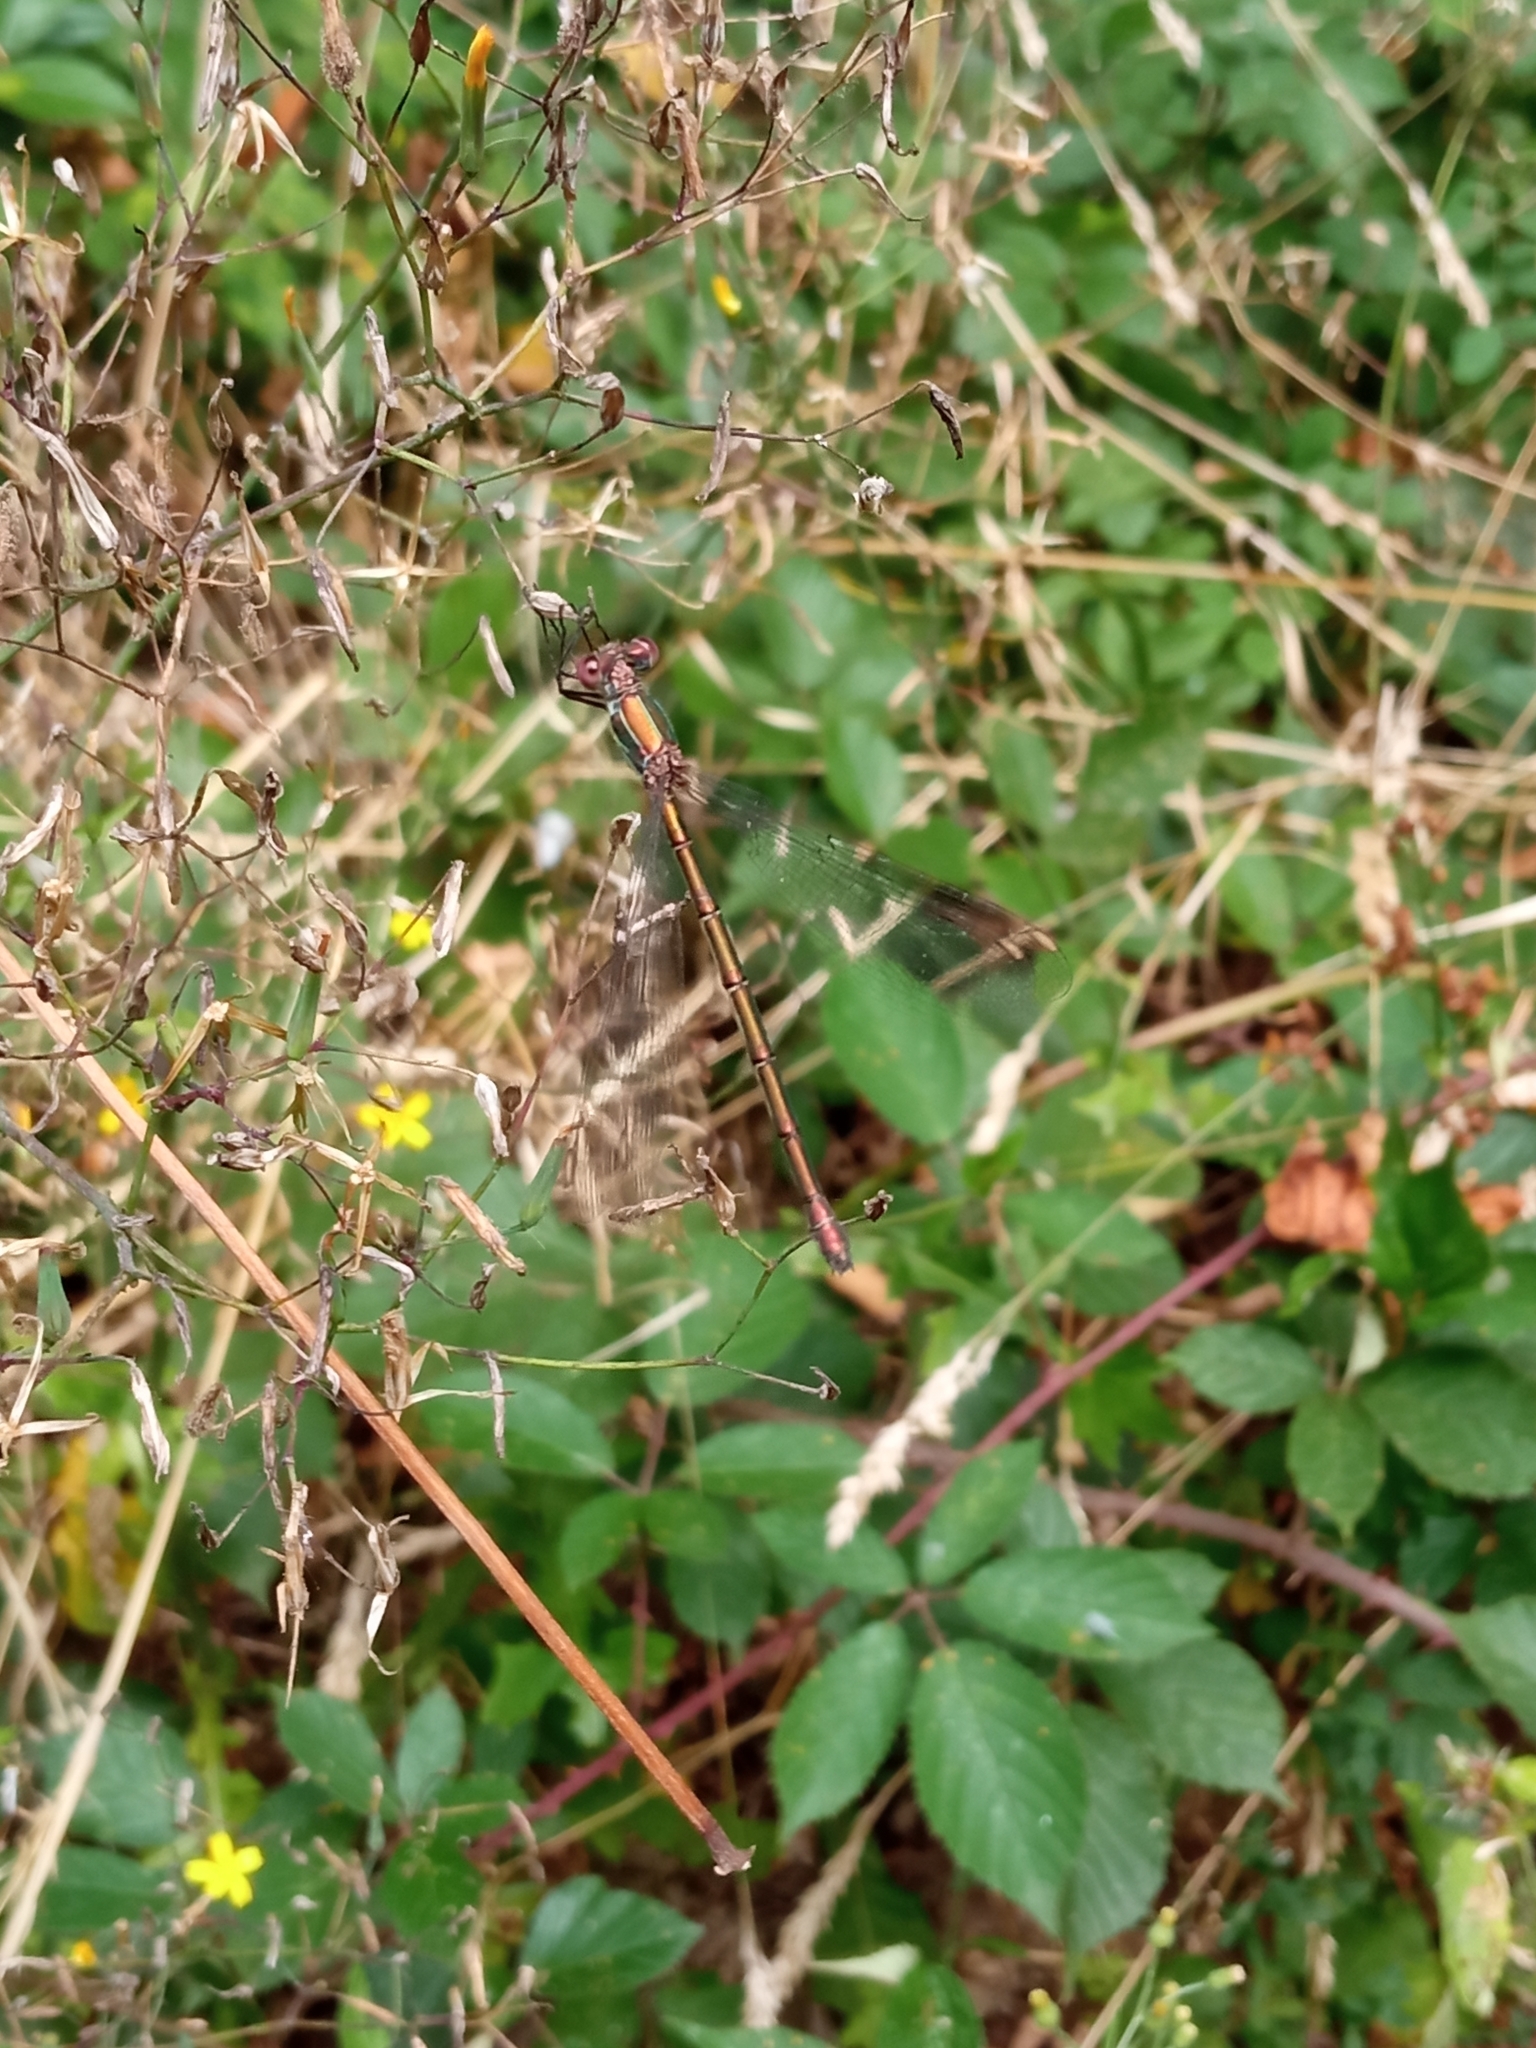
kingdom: Animalia
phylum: Arthropoda
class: Insecta
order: Odonata
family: Lestidae
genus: Chalcolestes
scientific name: Chalcolestes viridis
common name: Green emerald damselfly
